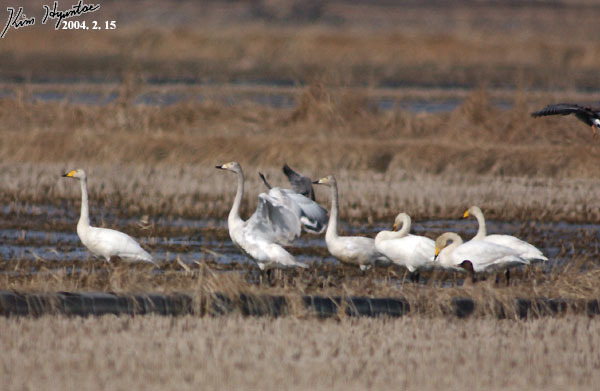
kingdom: Animalia
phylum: Chordata
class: Aves
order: Anseriformes
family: Anatidae
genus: Cygnus
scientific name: Cygnus cygnus
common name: Whooper swan
